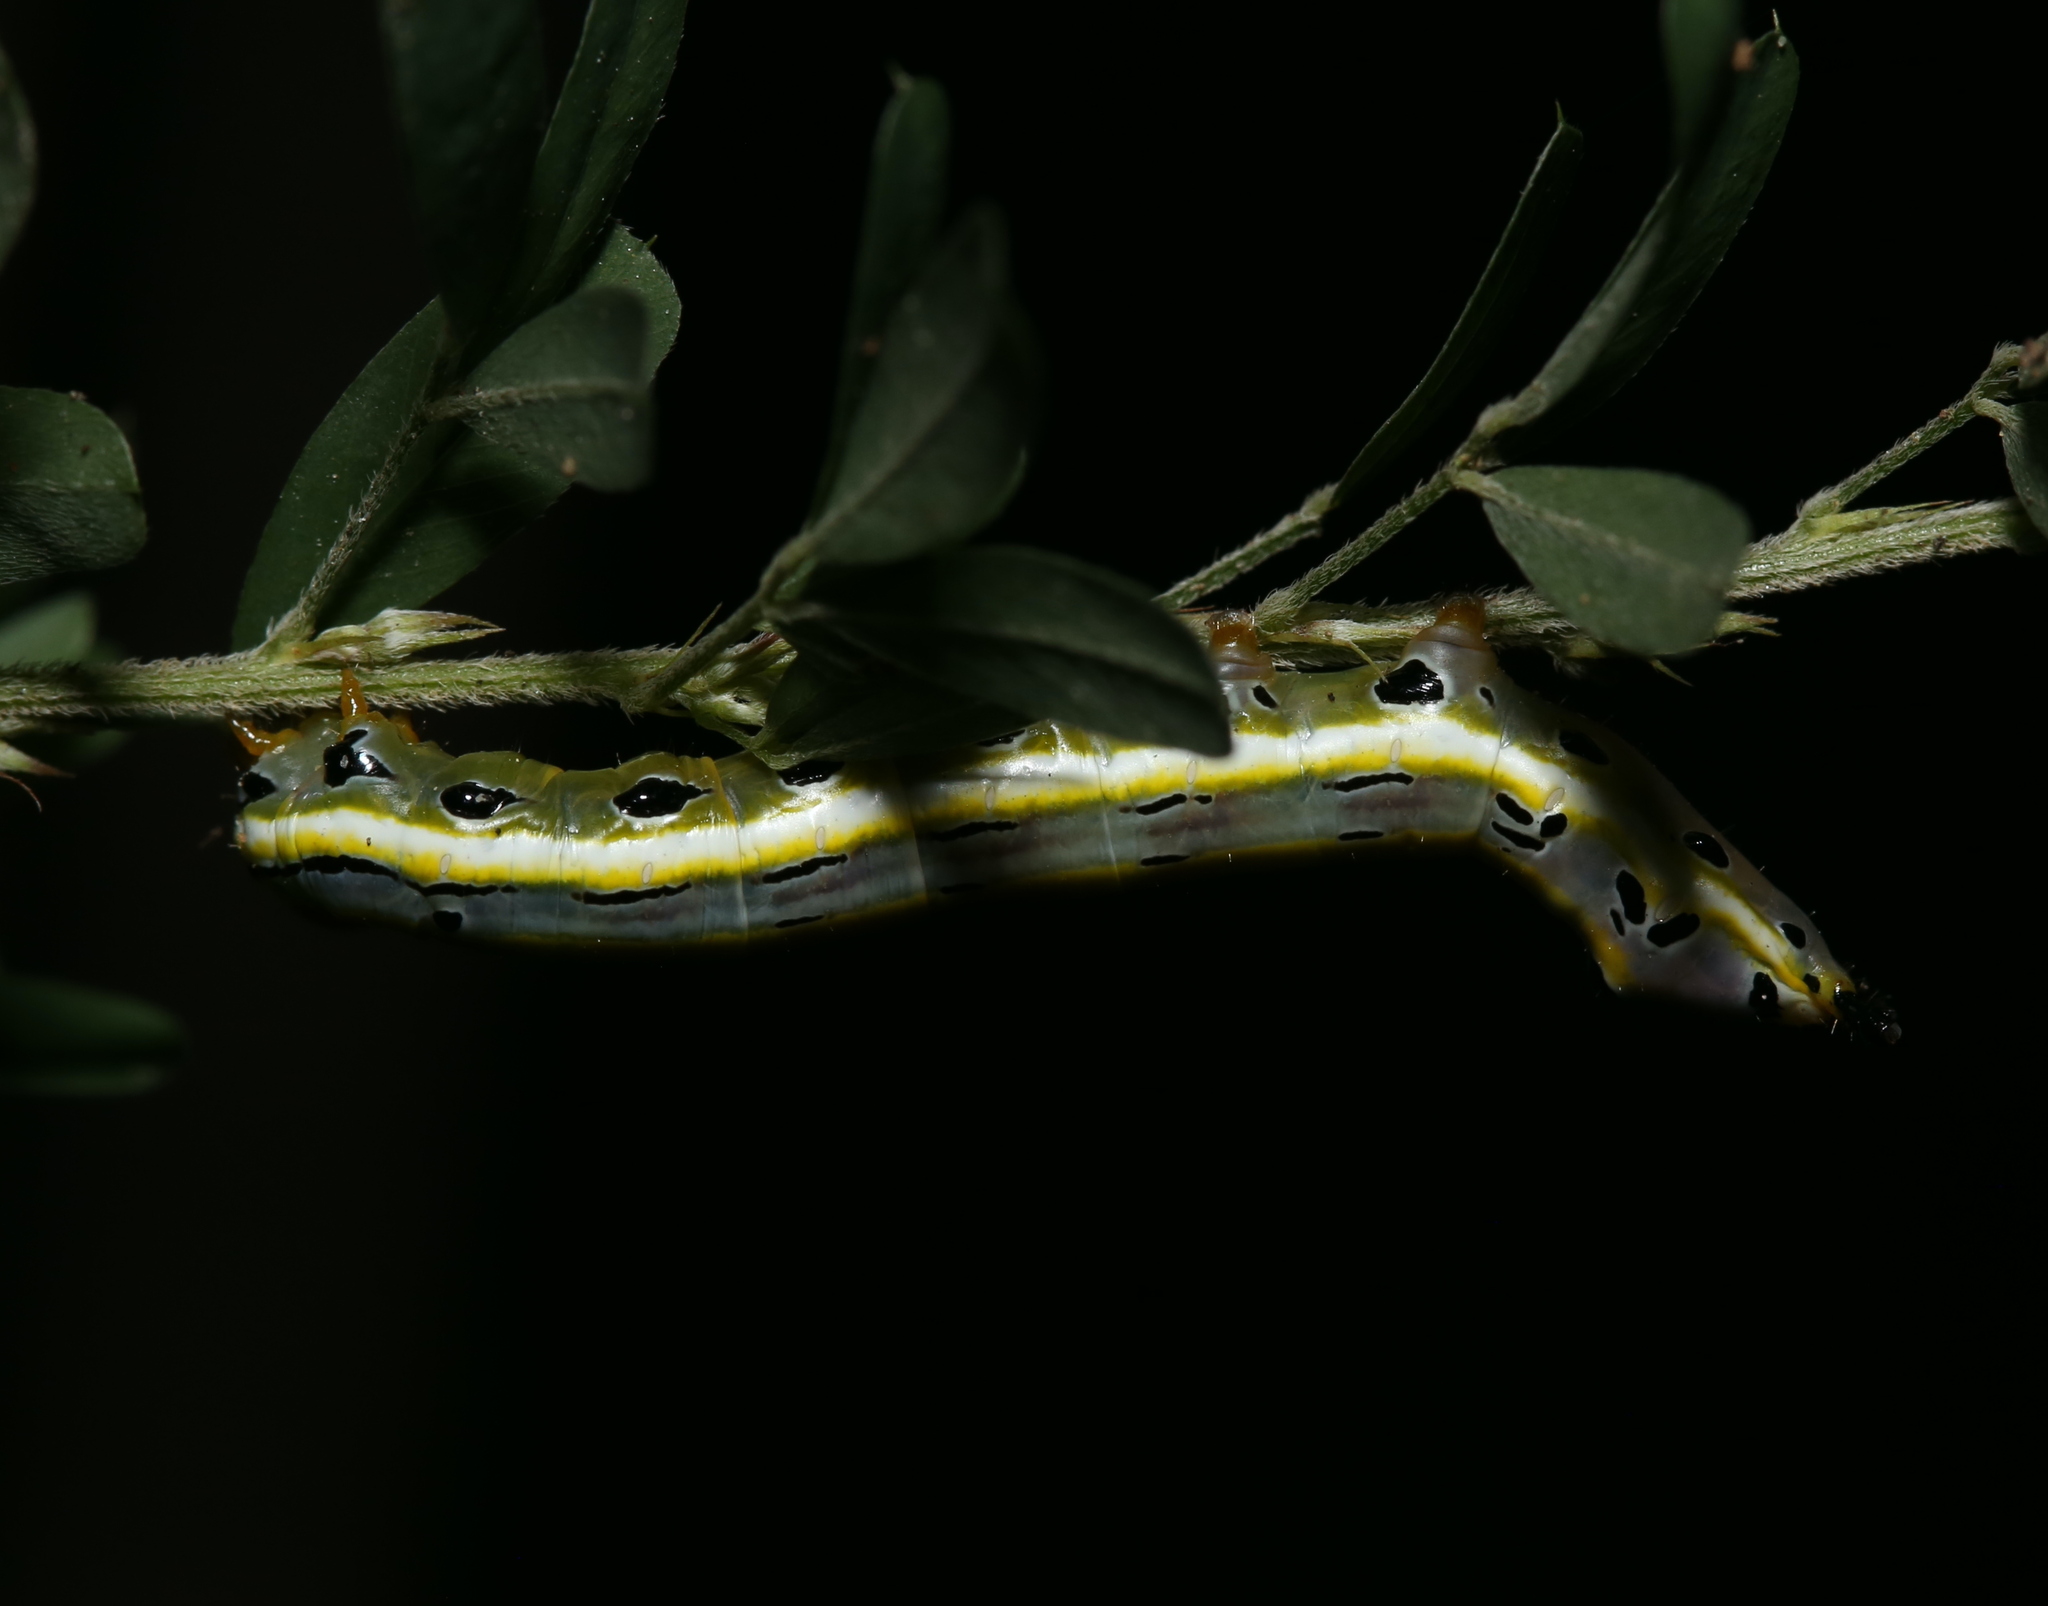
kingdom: Animalia
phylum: Arthropoda
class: Insecta
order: Lepidoptera
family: Notodontidae
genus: Dasylophia
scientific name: Dasylophia anguina
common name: Black-spotted prominent
